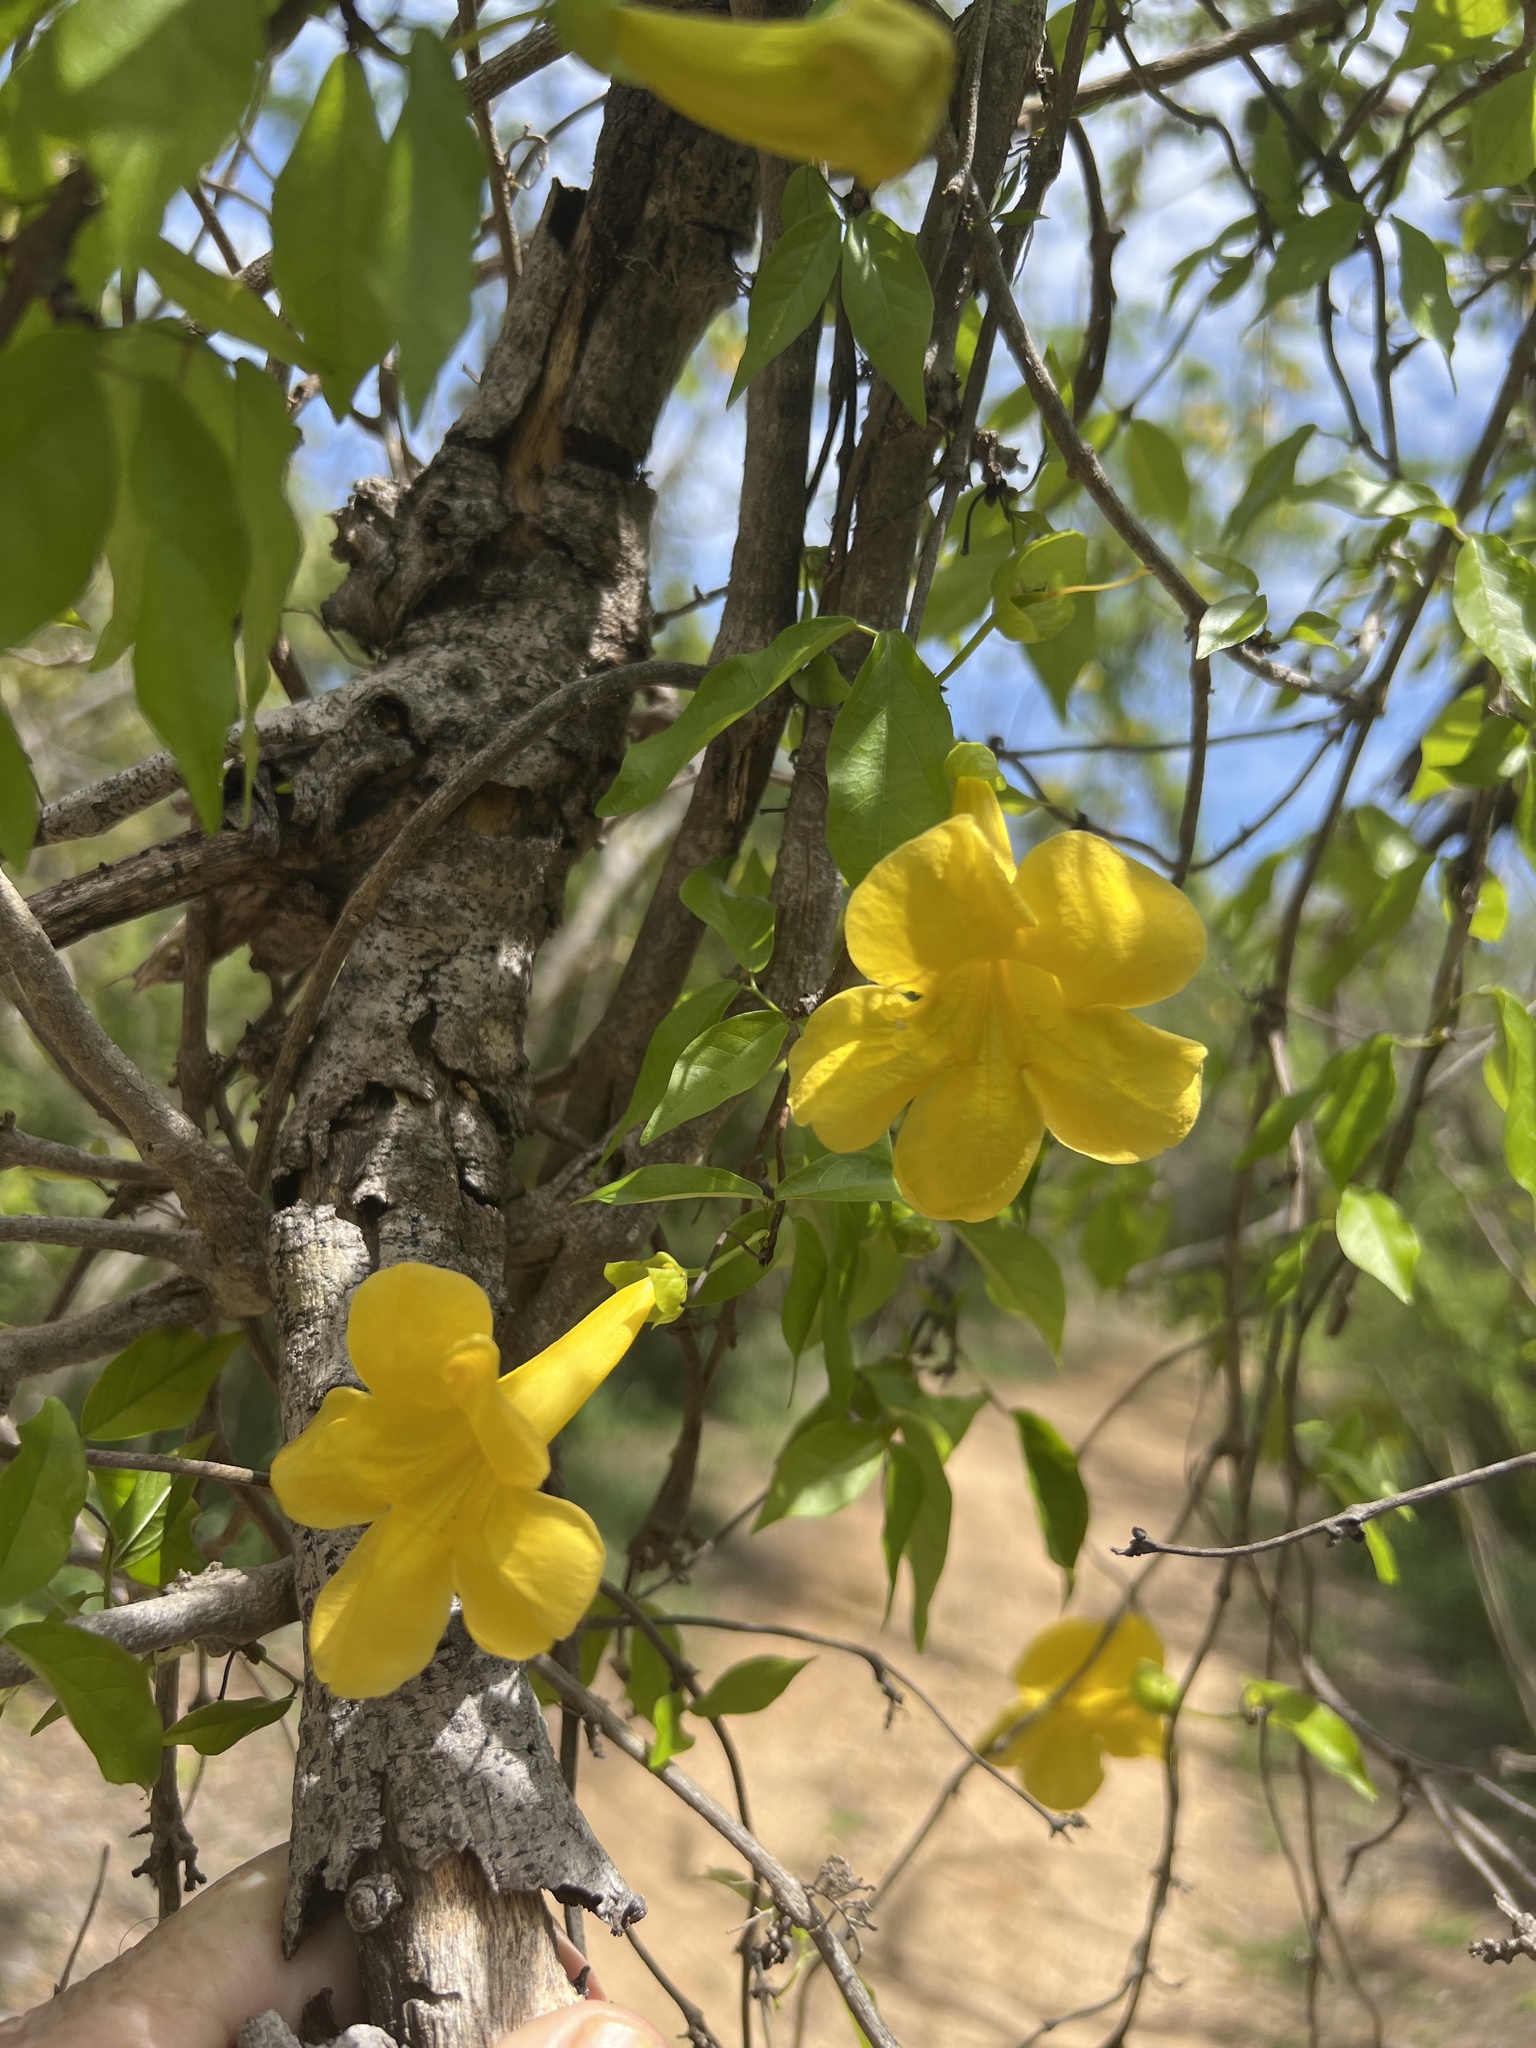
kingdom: Plantae
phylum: Tracheophyta
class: Magnoliopsida
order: Lamiales
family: Bignoniaceae
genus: Dolichandra
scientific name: Dolichandra unguis-cati
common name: Catclaw vine
